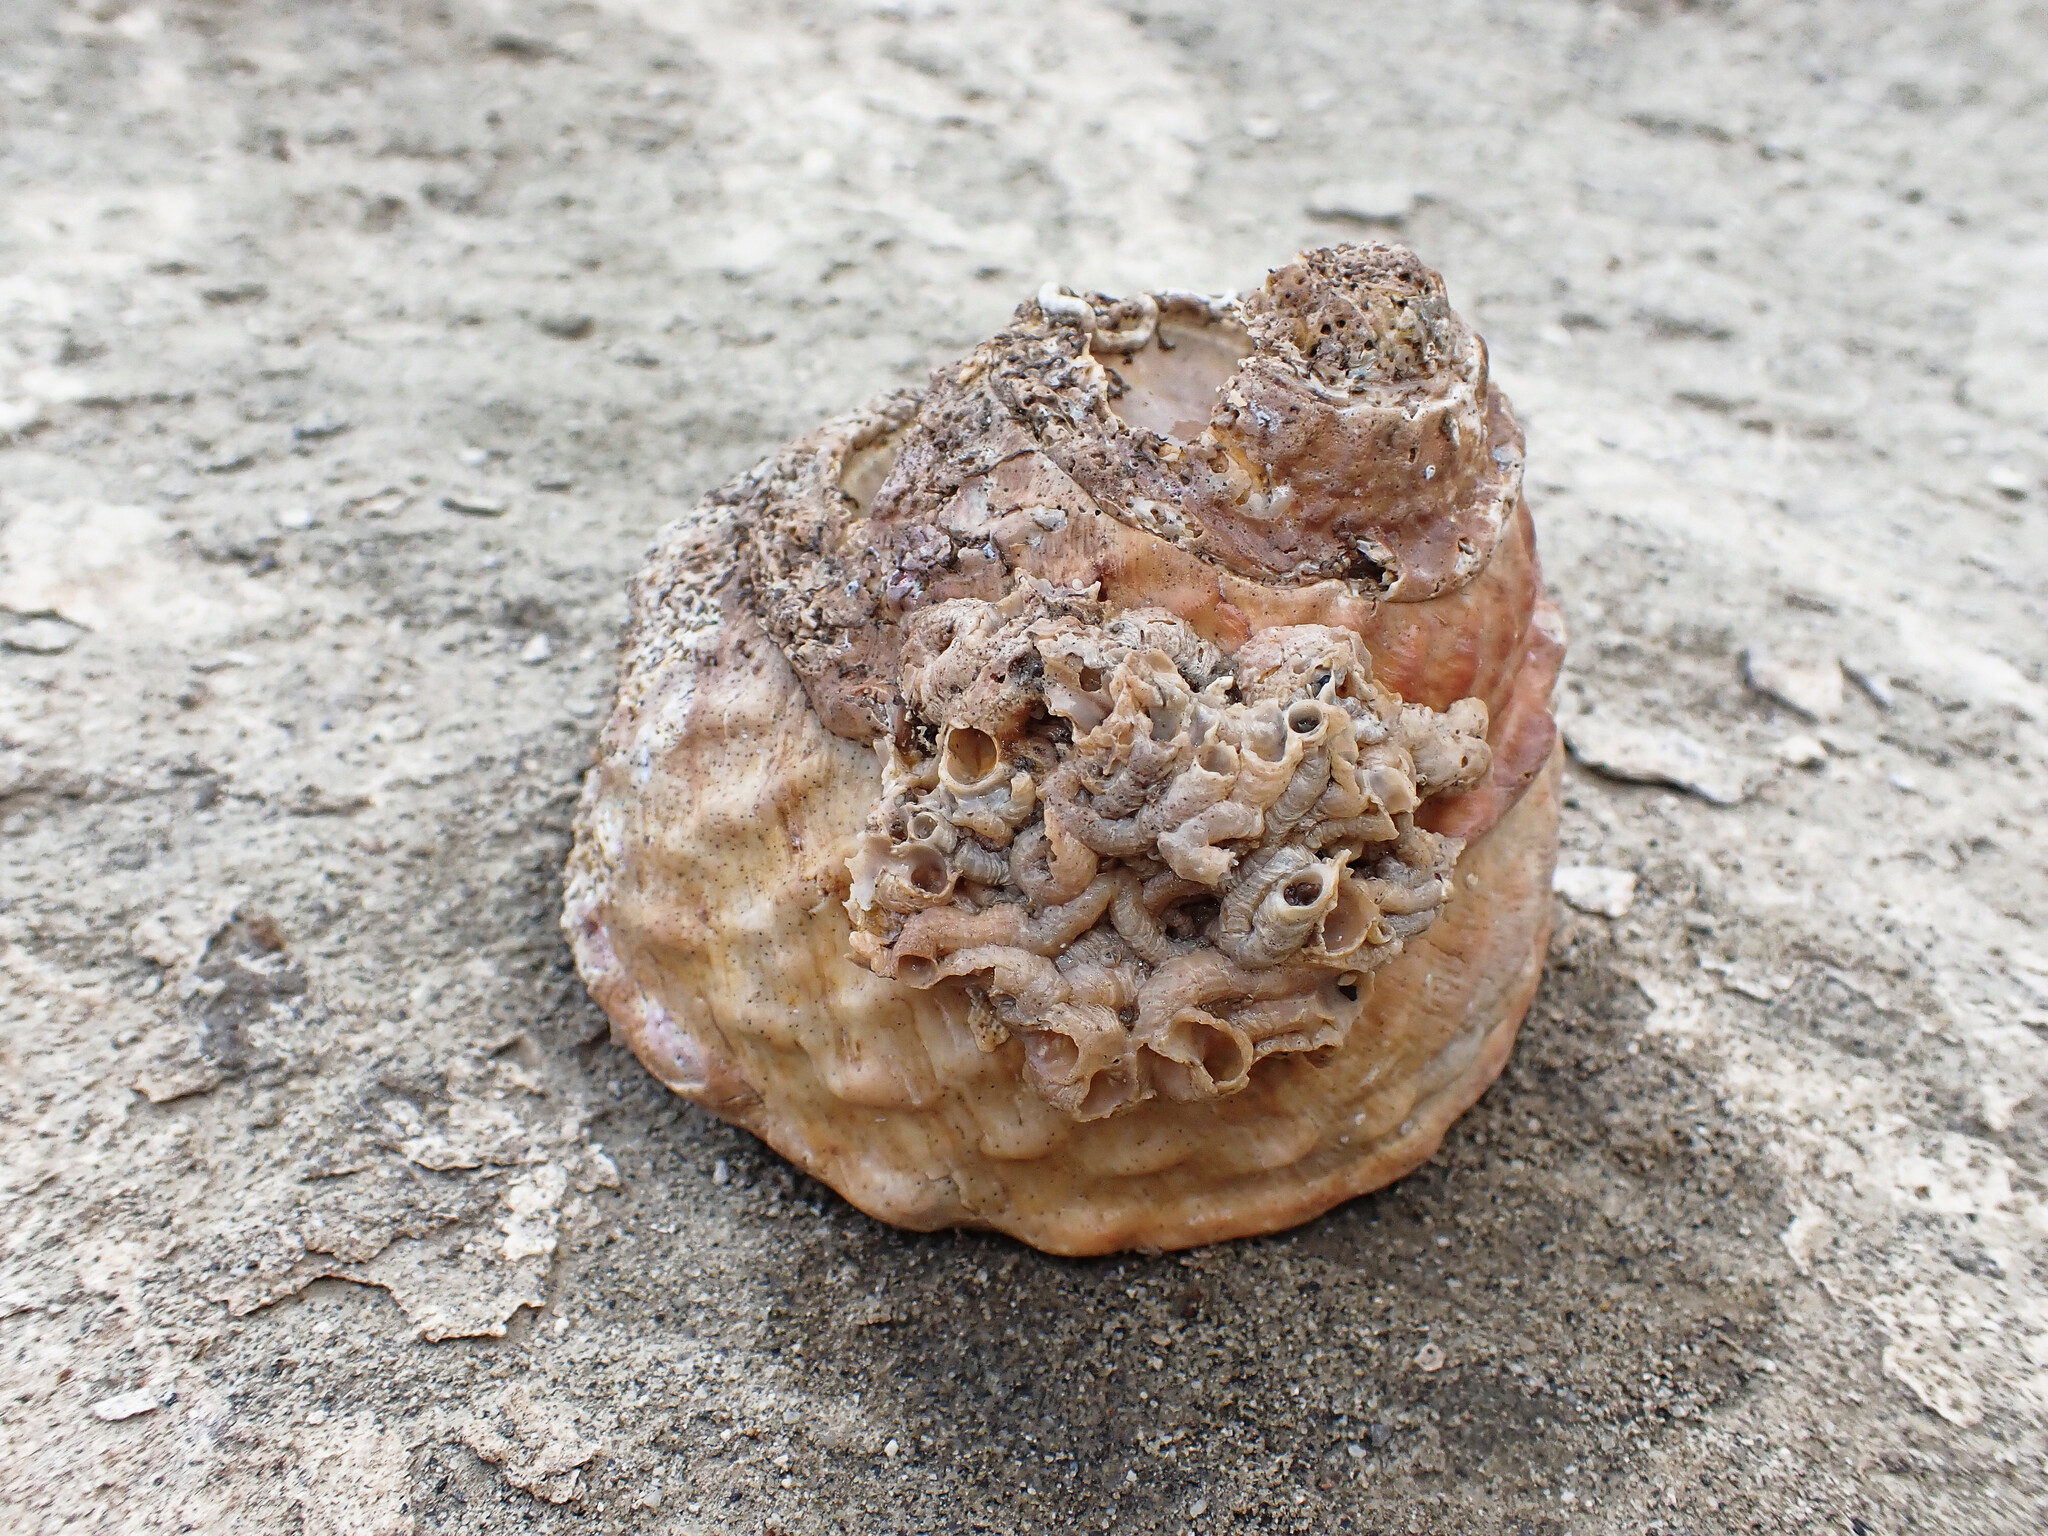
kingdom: Animalia
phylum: Mollusca
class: Gastropoda
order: Trochida
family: Turbinidae
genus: Megastraea
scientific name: Megastraea undosa
